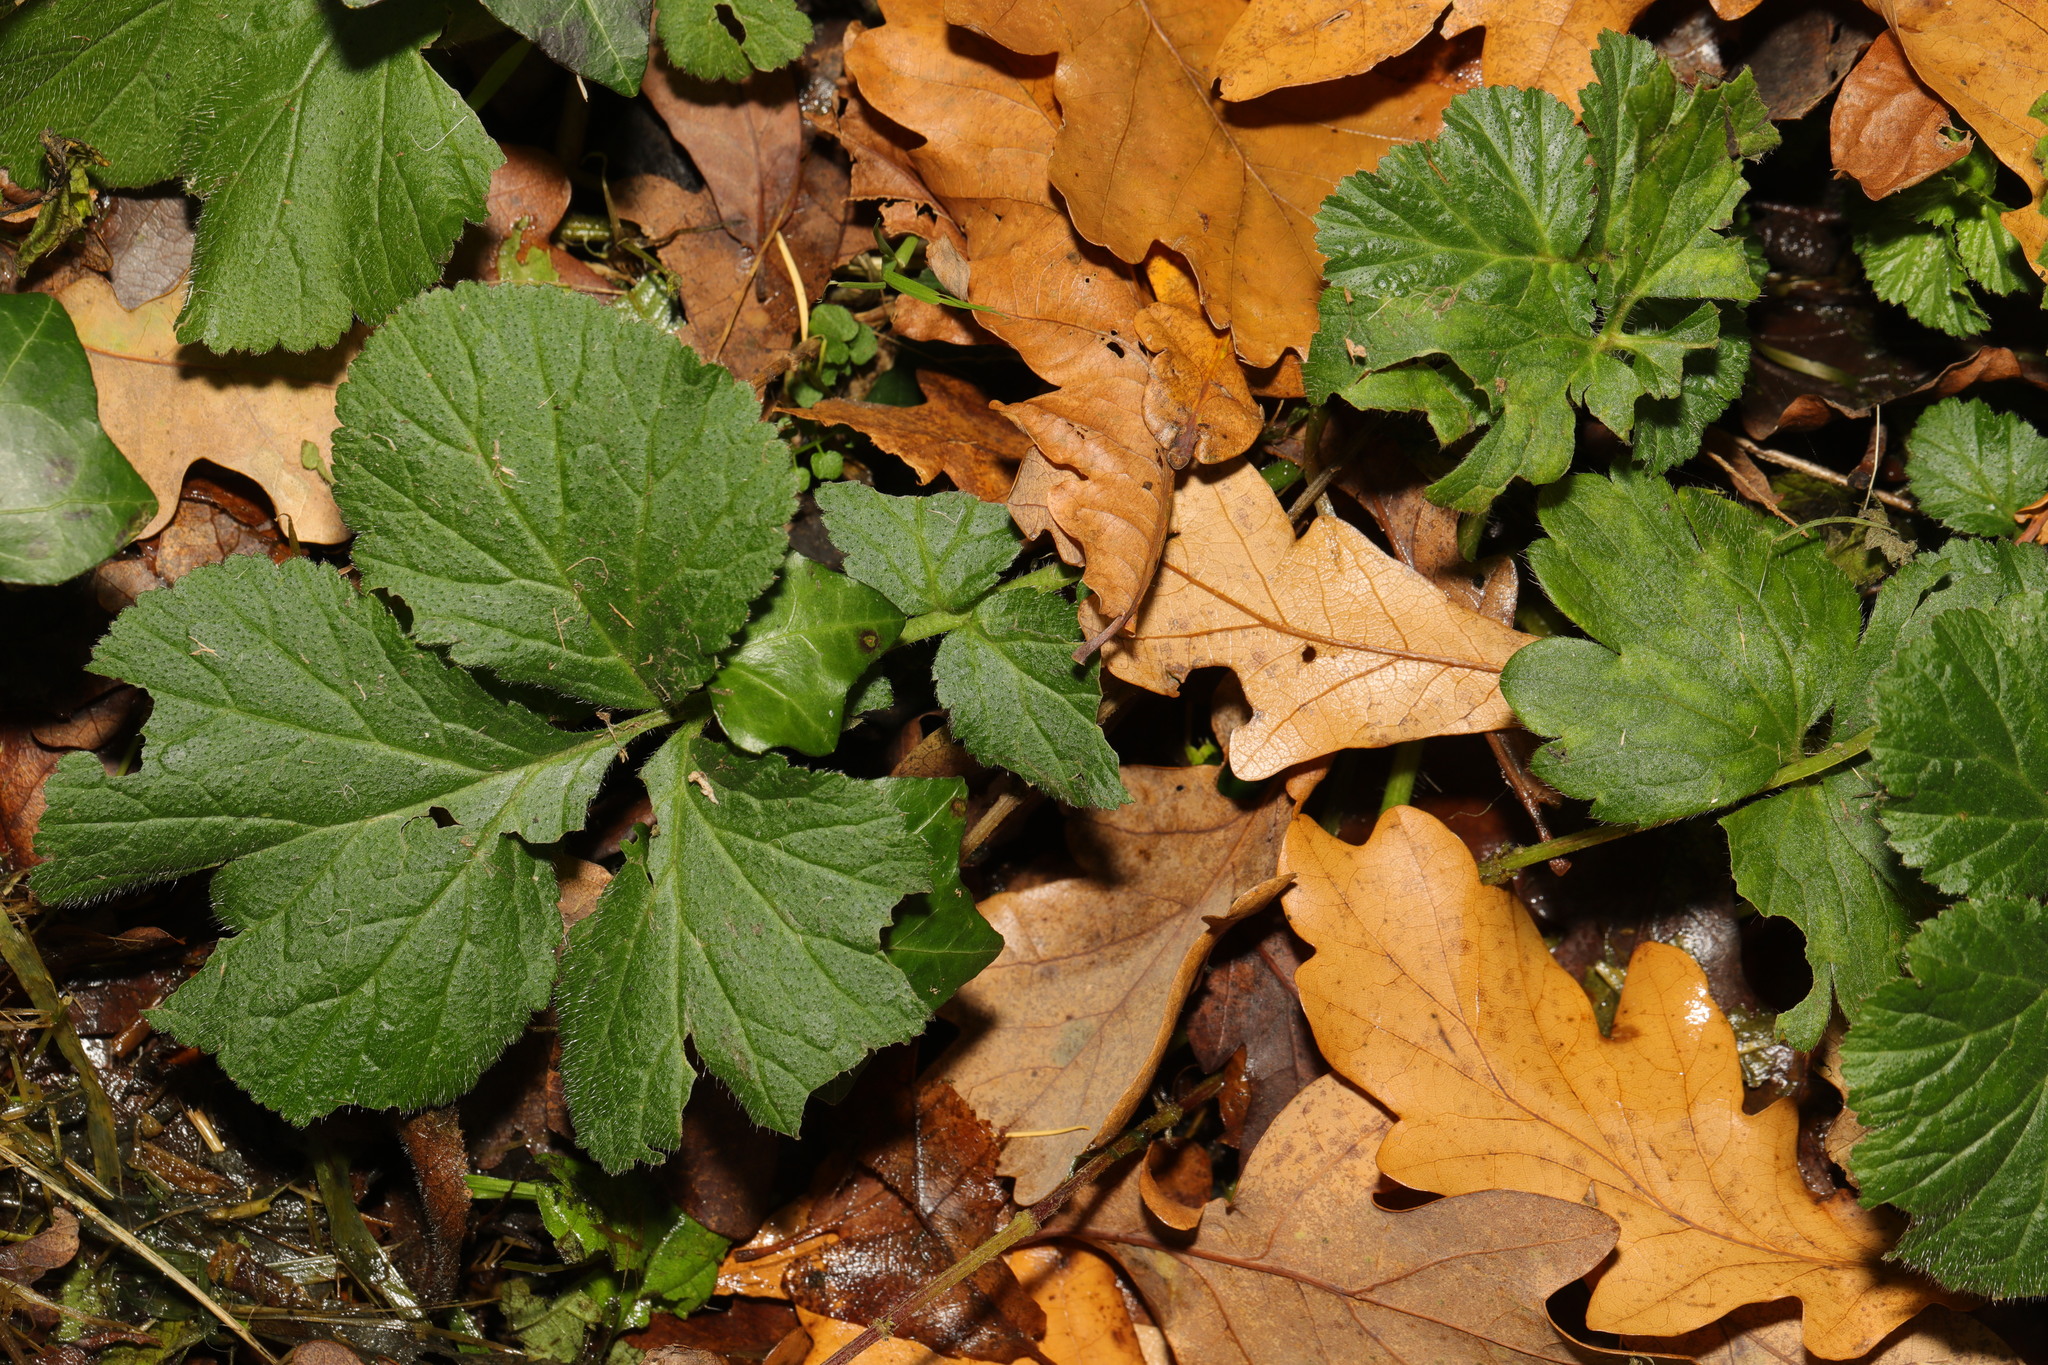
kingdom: Plantae
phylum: Tracheophyta
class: Magnoliopsida
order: Rosales
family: Rosaceae
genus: Geum
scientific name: Geum urbanum
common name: Wood avens
